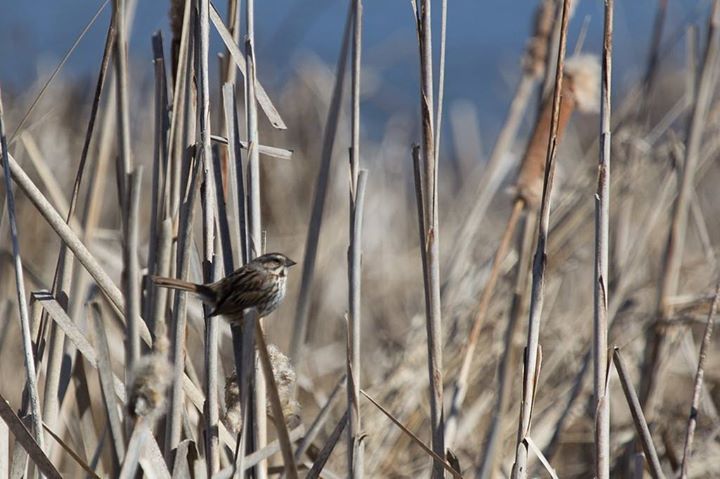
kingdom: Animalia
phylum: Chordata
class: Aves
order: Passeriformes
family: Passerellidae
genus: Melospiza
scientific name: Melospiza melodia
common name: Song sparrow
